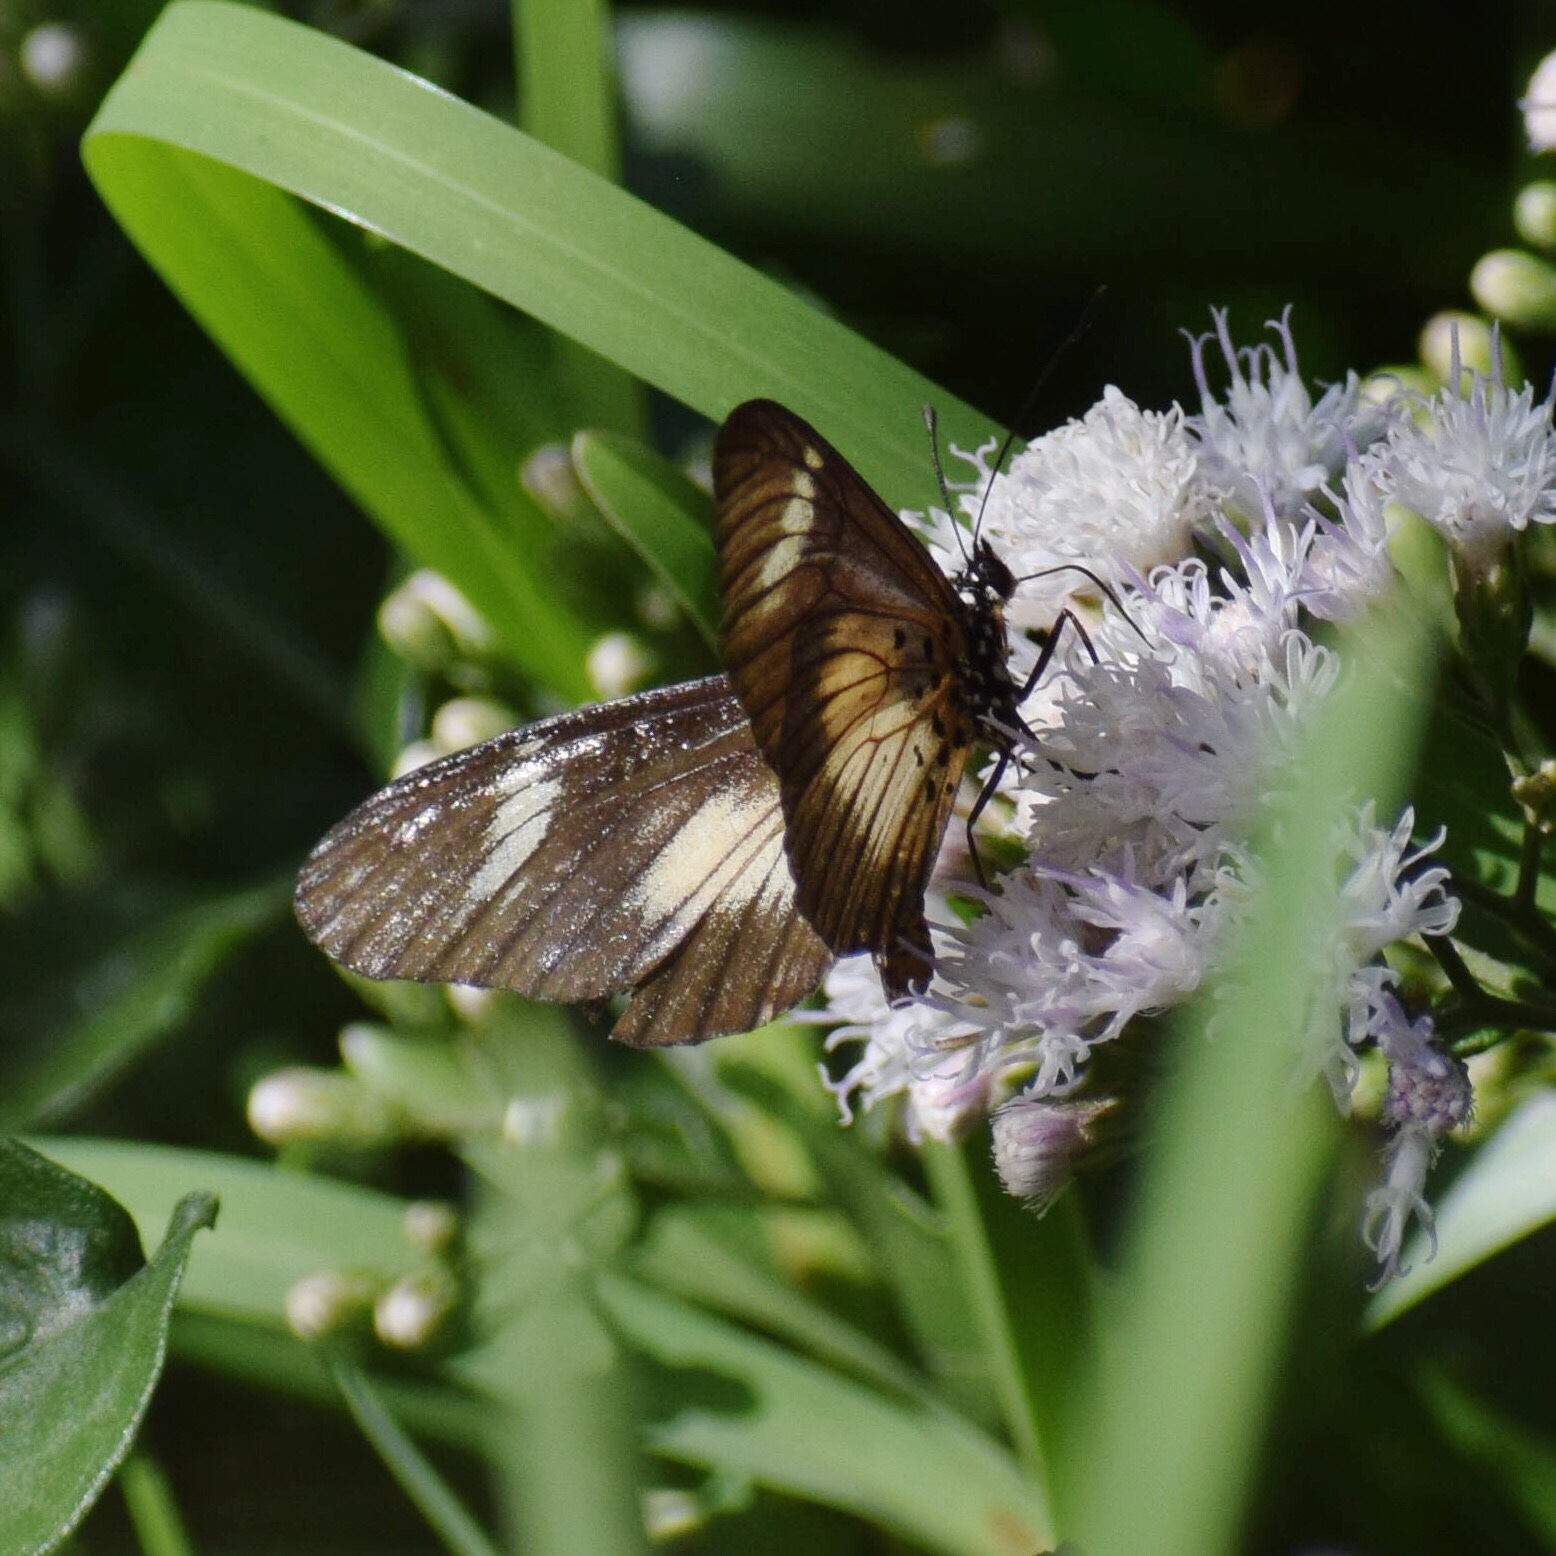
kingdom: Animalia
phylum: Arthropoda
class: Insecta
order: Lepidoptera
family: Nymphalidae
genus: Acraea
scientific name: Acraea esebria
